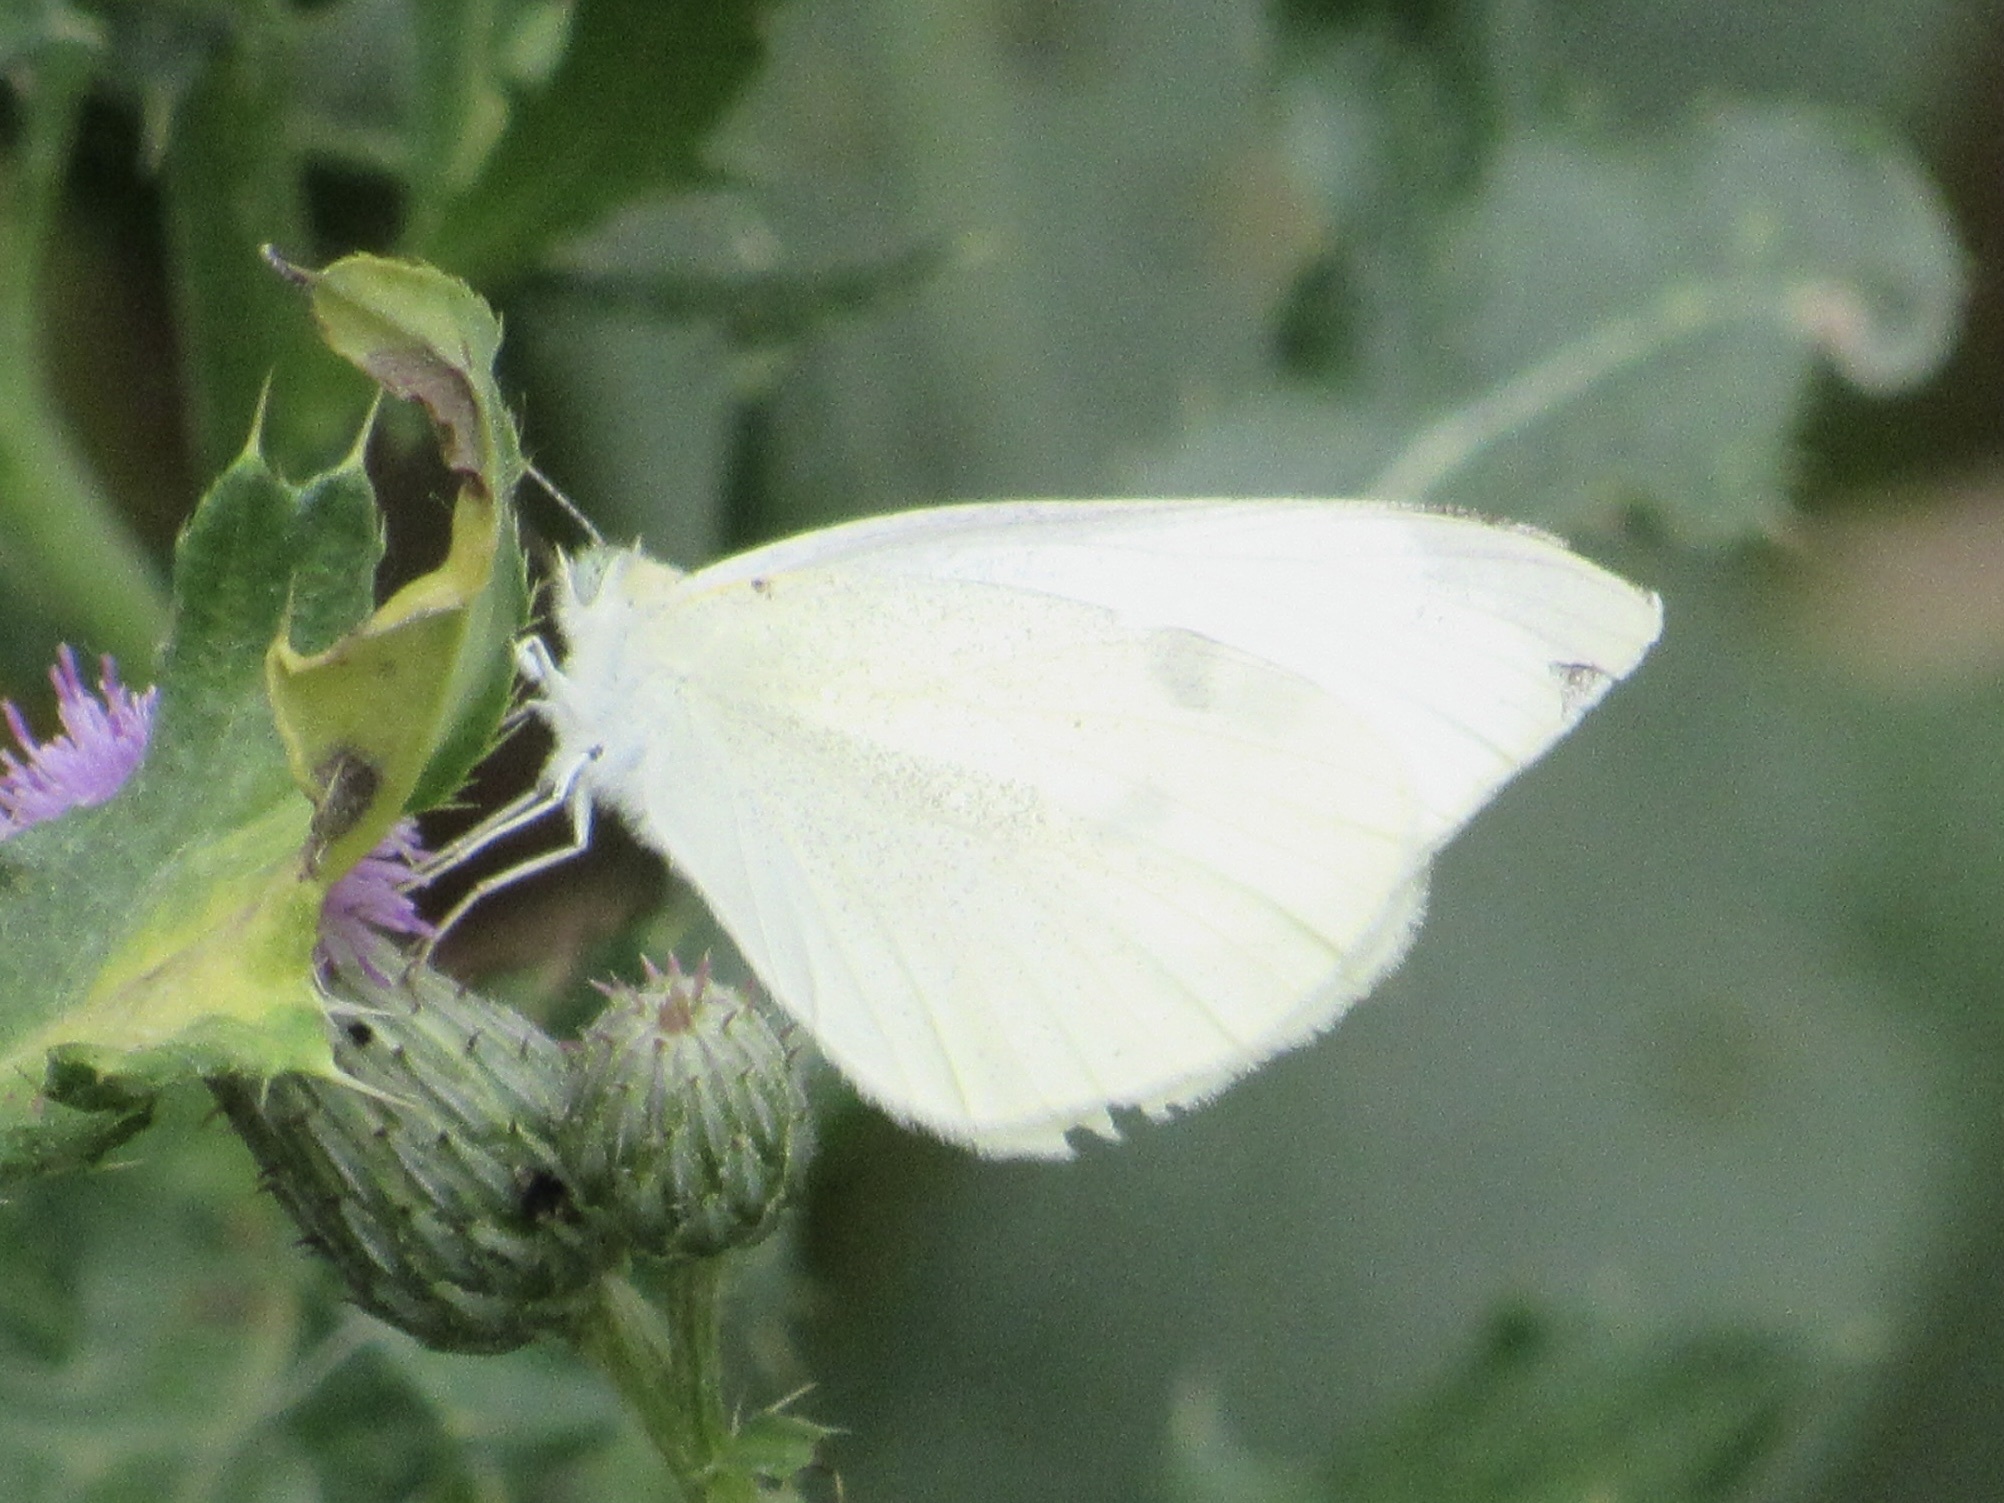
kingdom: Animalia
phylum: Arthropoda
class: Insecta
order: Lepidoptera
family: Pieridae
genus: Pieris
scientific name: Pieris rapae
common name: Small white
